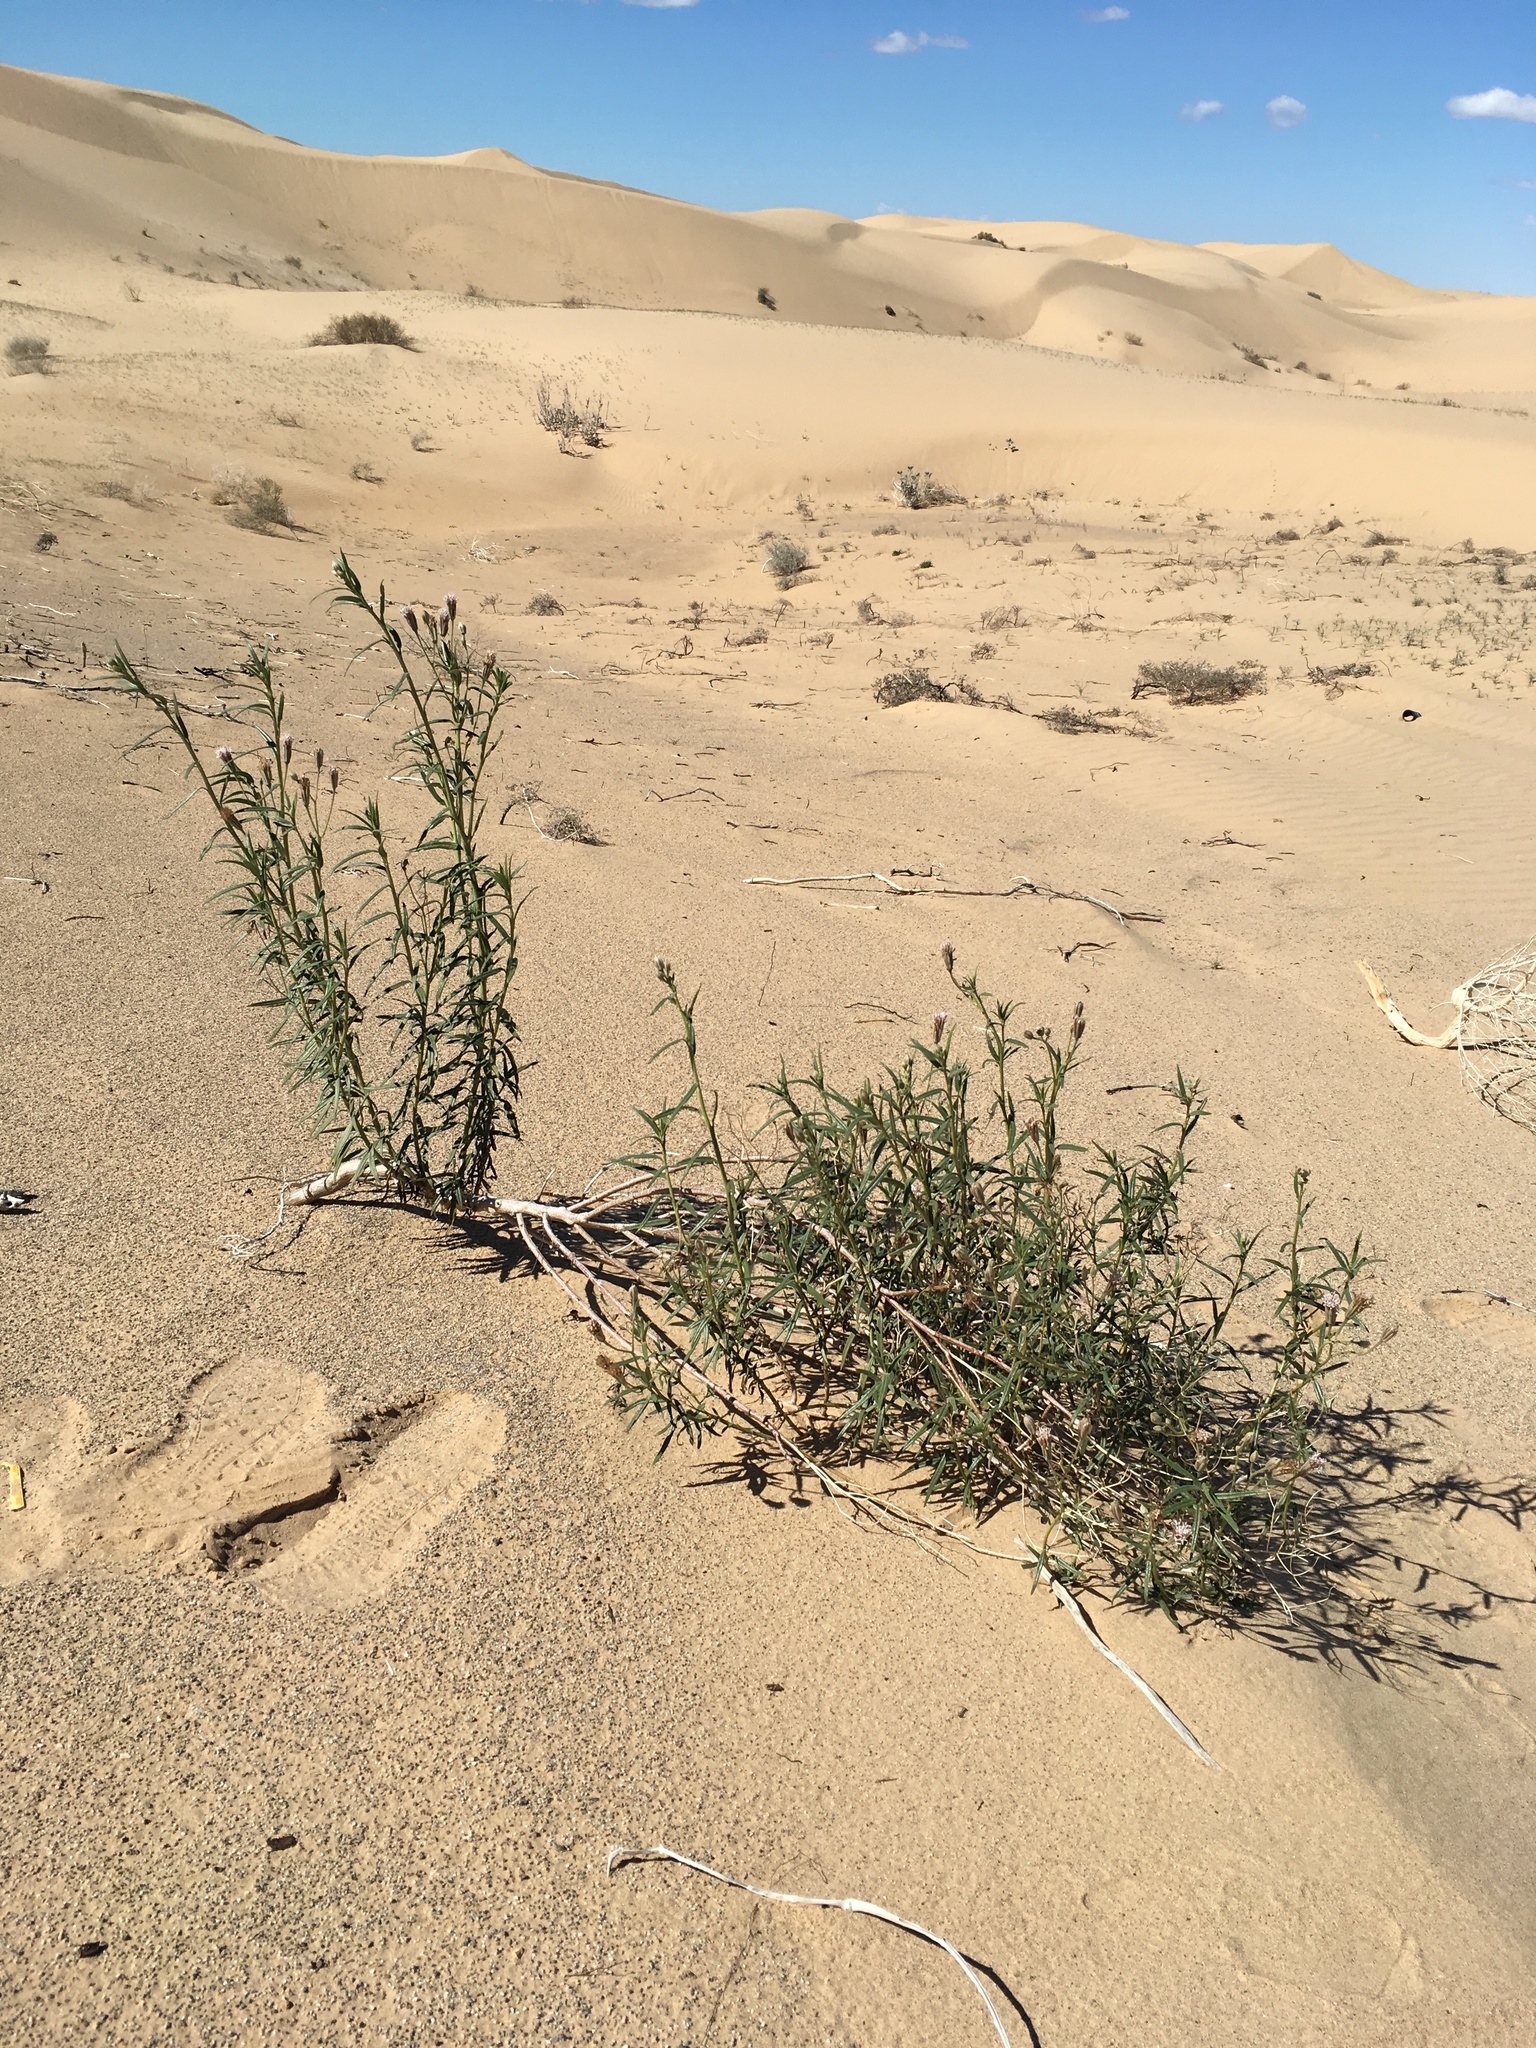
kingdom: Plantae
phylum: Tracheophyta
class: Magnoliopsida
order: Asterales
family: Asteraceae
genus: Palafoxia
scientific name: Palafoxia arida
